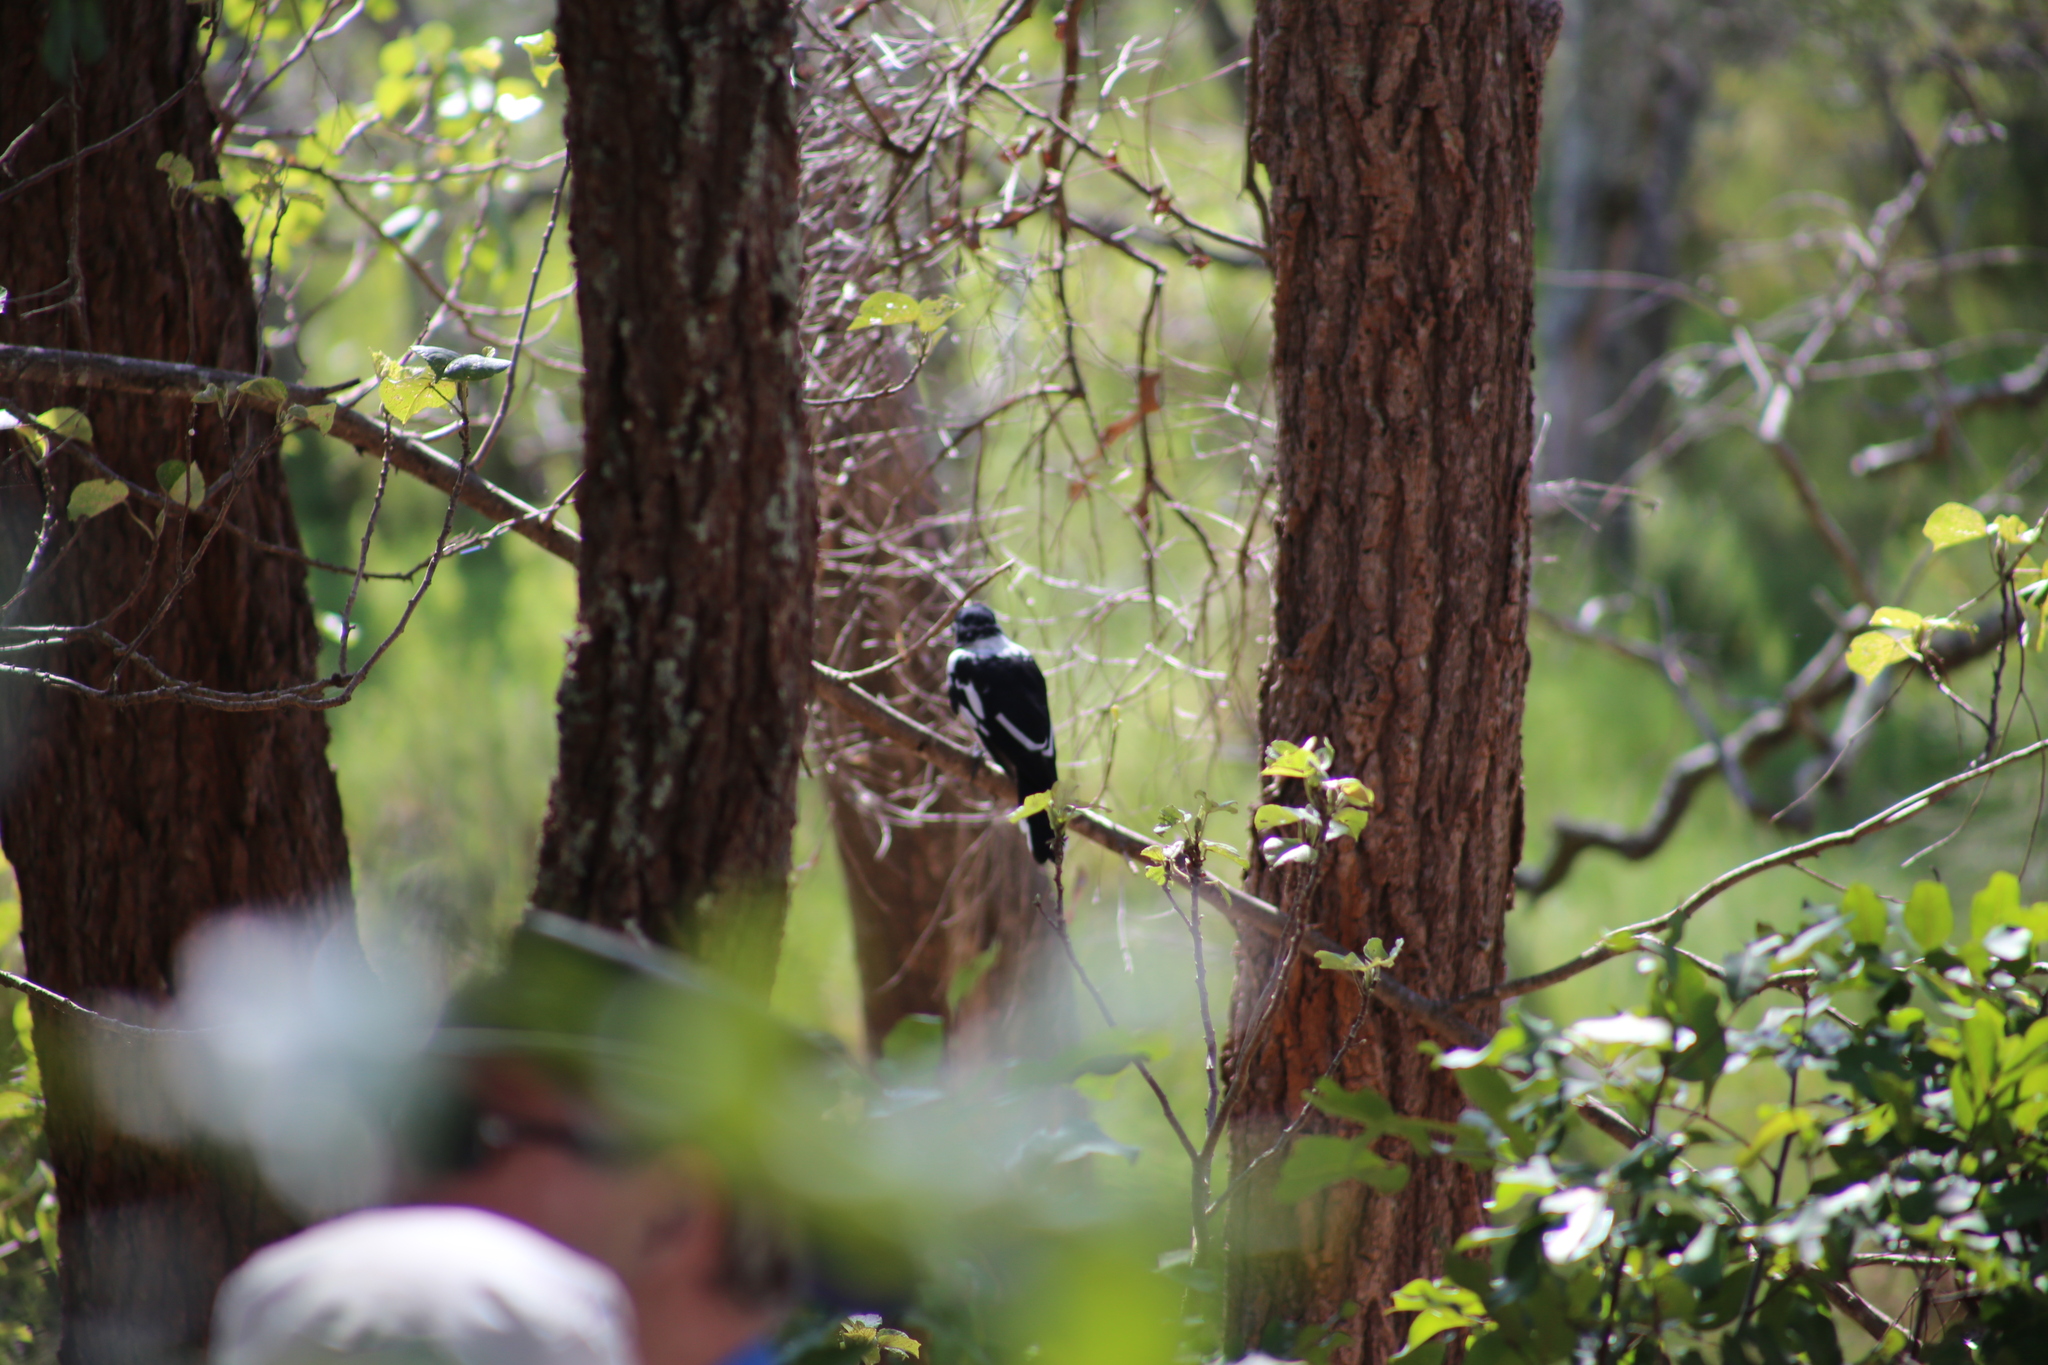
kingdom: Animalia
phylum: Chordata
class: Aves
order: Passeriformes
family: Cracticidae
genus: Cracticus
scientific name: Cracticus nigrogularis
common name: Pied butcherbird
